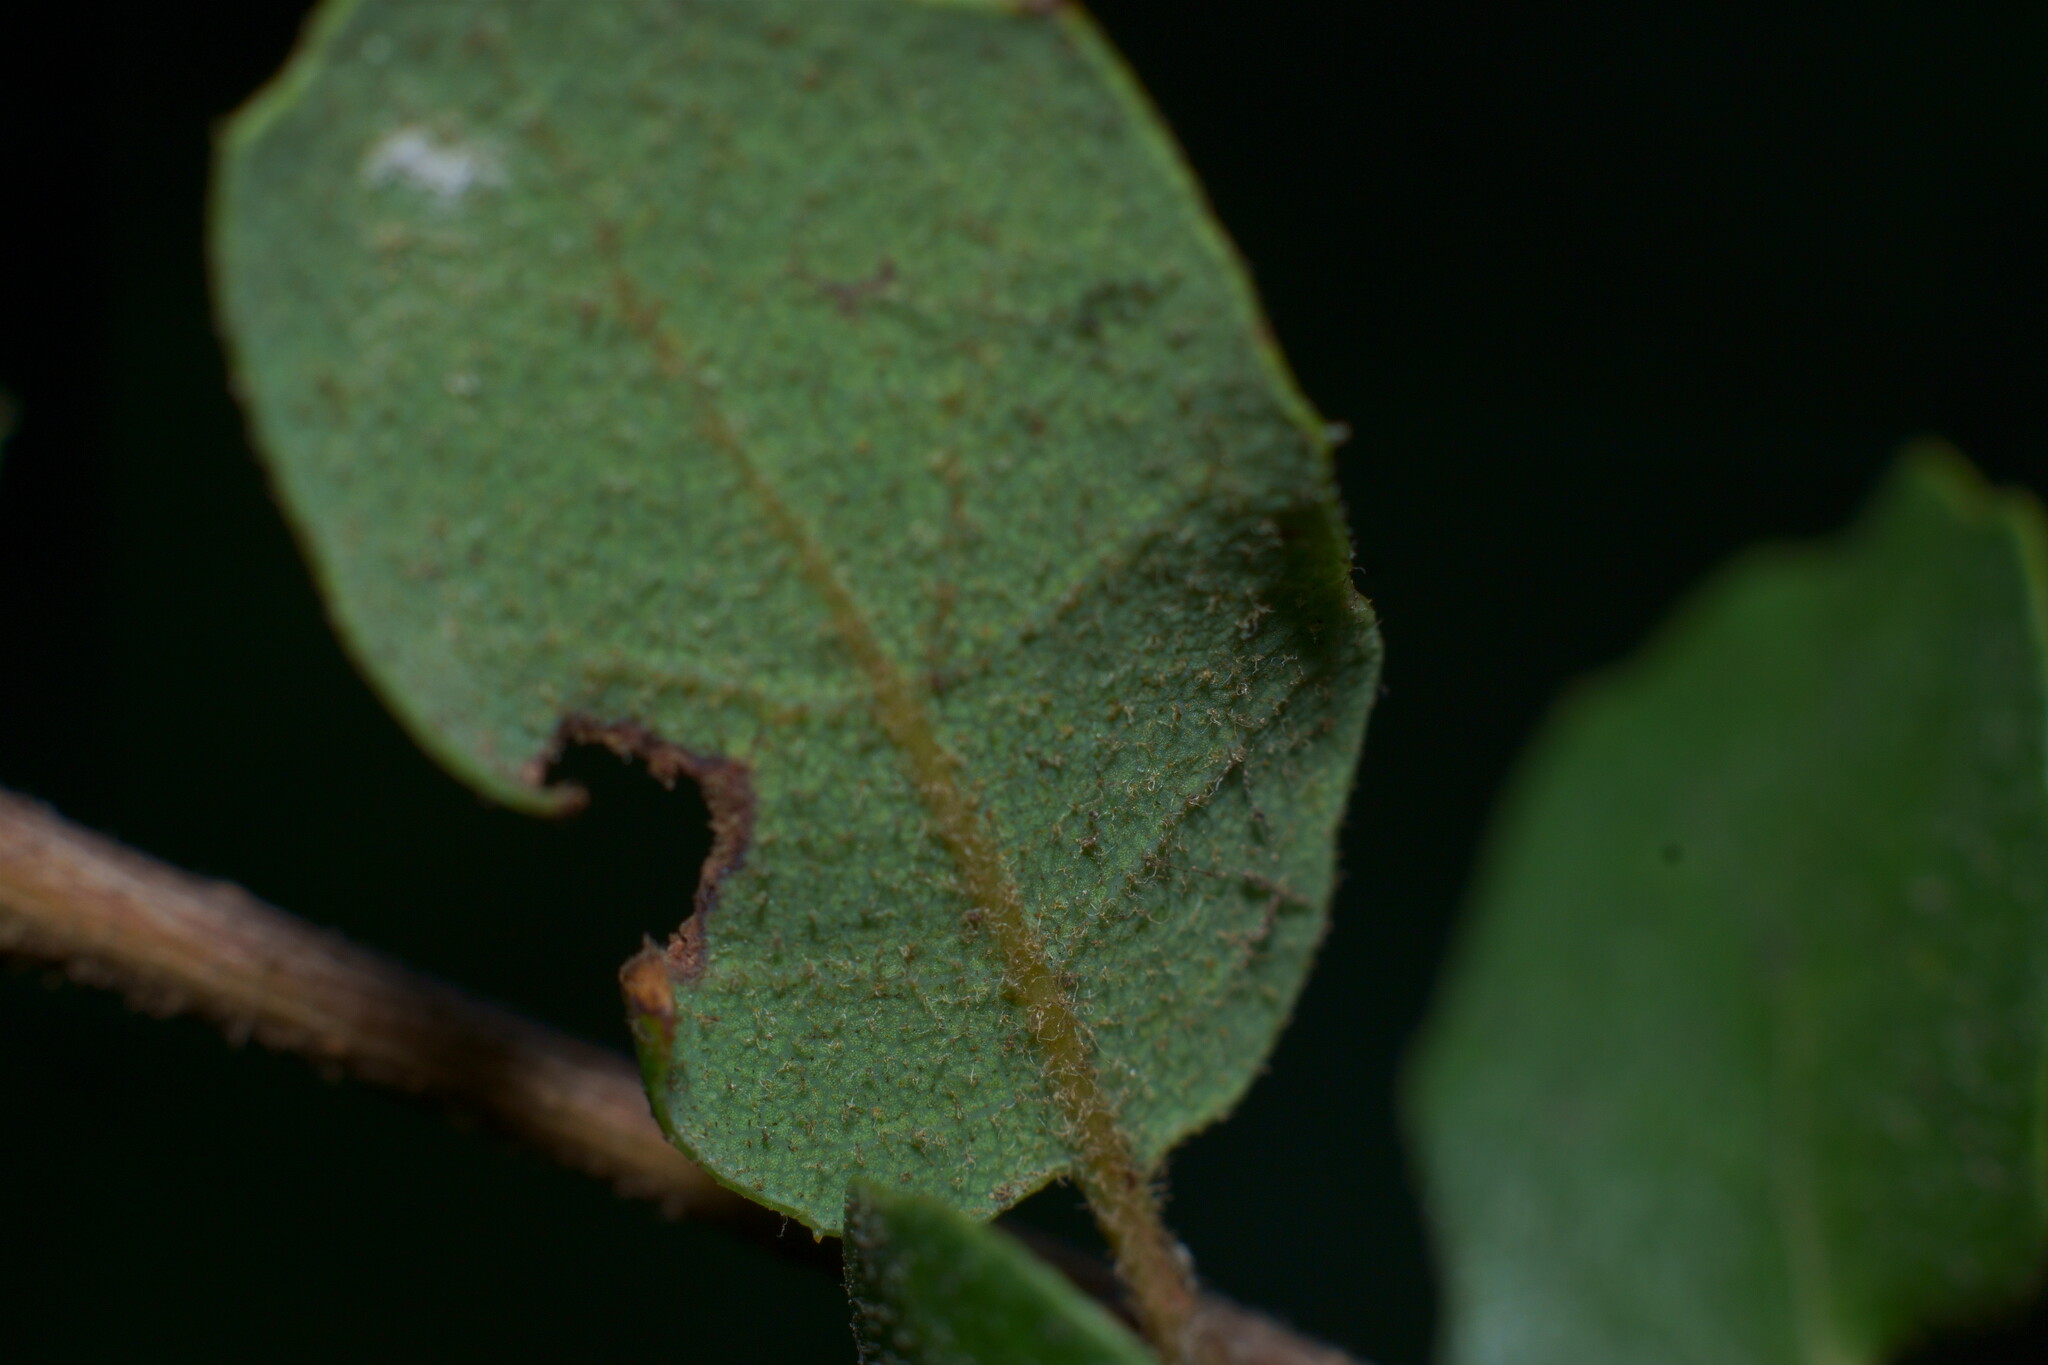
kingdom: Plantae
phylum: Tracheophyta
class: Magnoliopsida
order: Fagales
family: Fagaceae
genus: Quercus
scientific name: Quercus dumosa
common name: Coastal sage scrub oak
